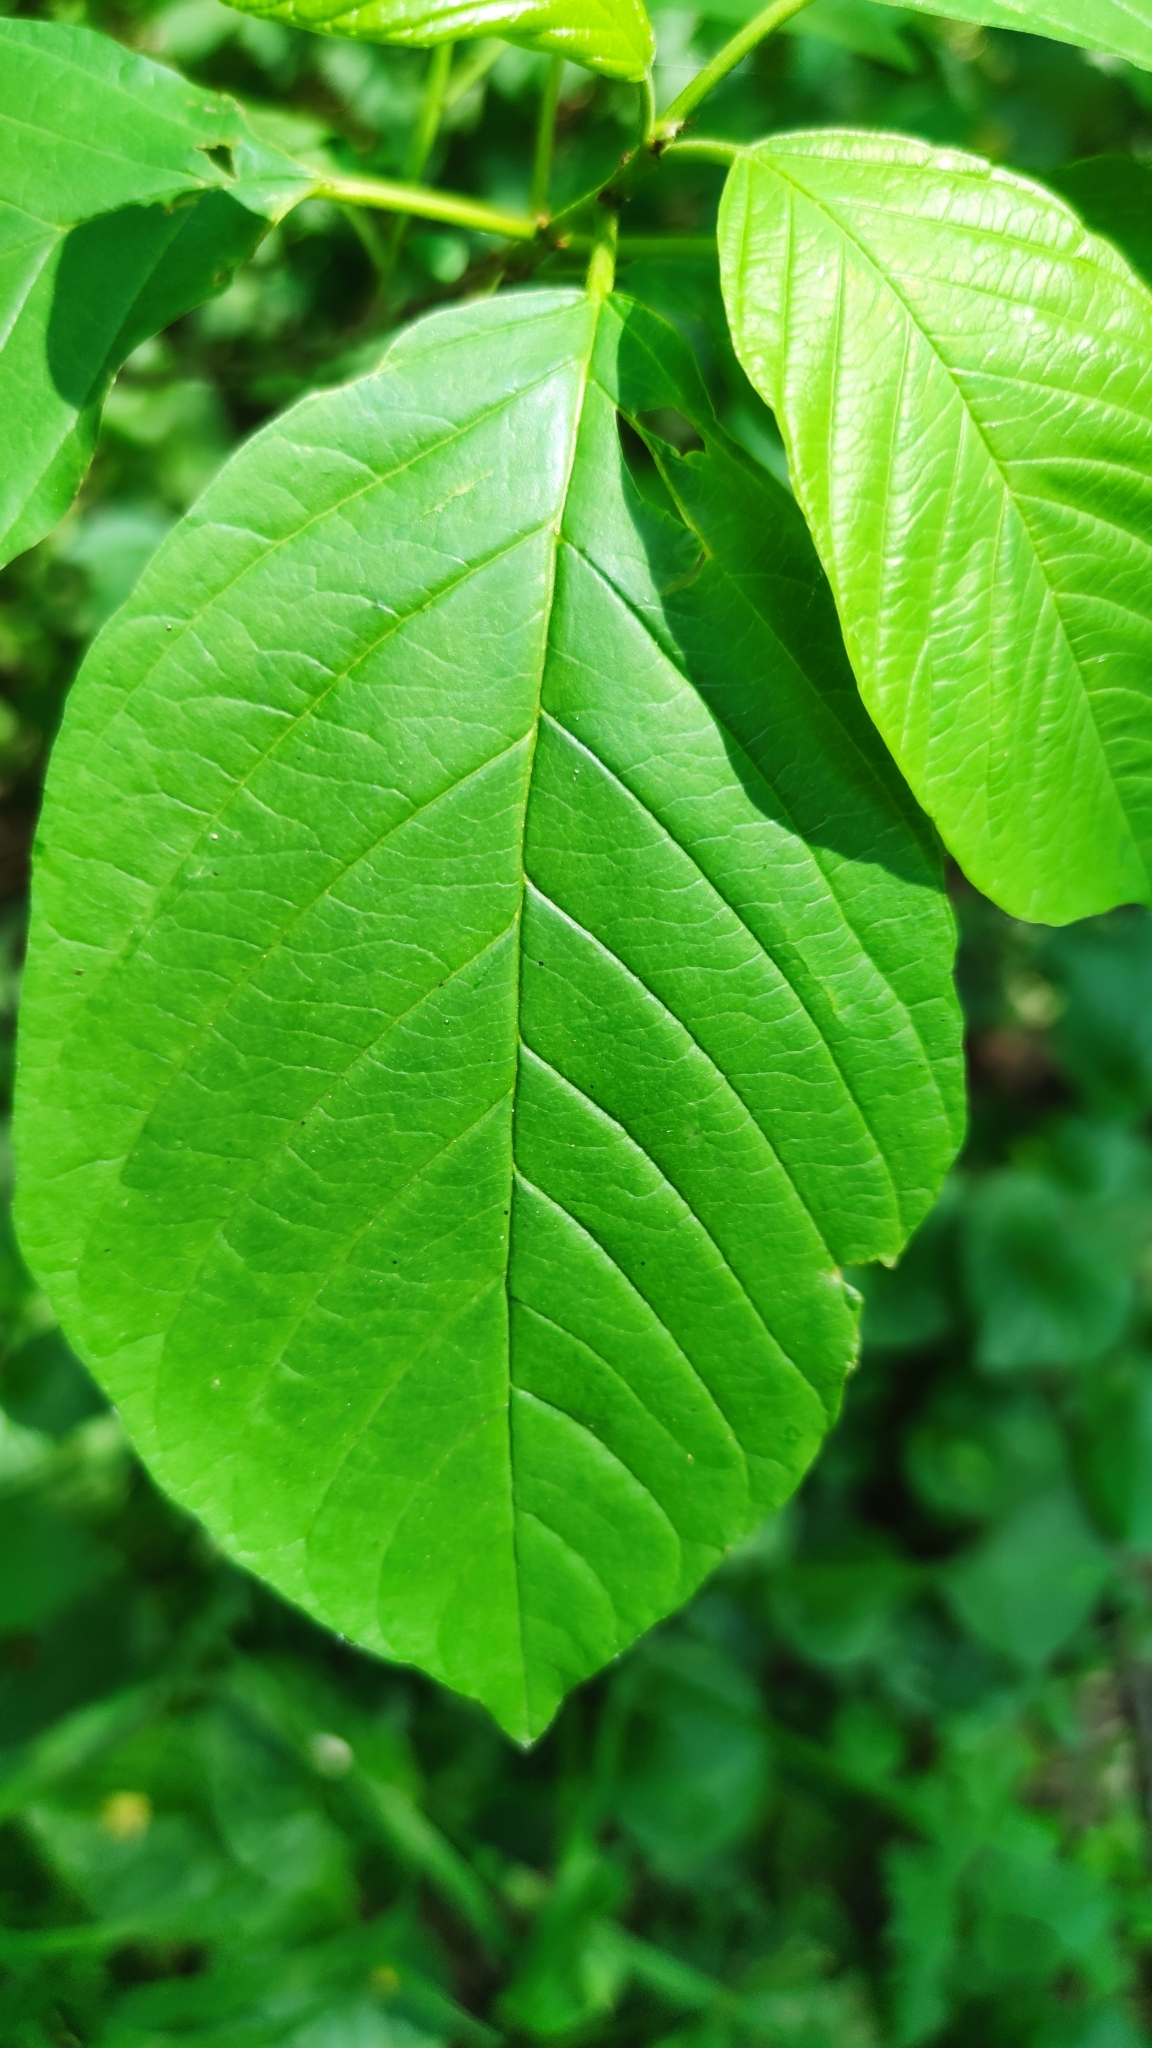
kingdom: Plantae
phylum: Tracheophyta
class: Magnoliopsida
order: Rosales
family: Rhamnaceae
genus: Frangula
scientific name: Frangula alnus
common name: Alder buckthorn
